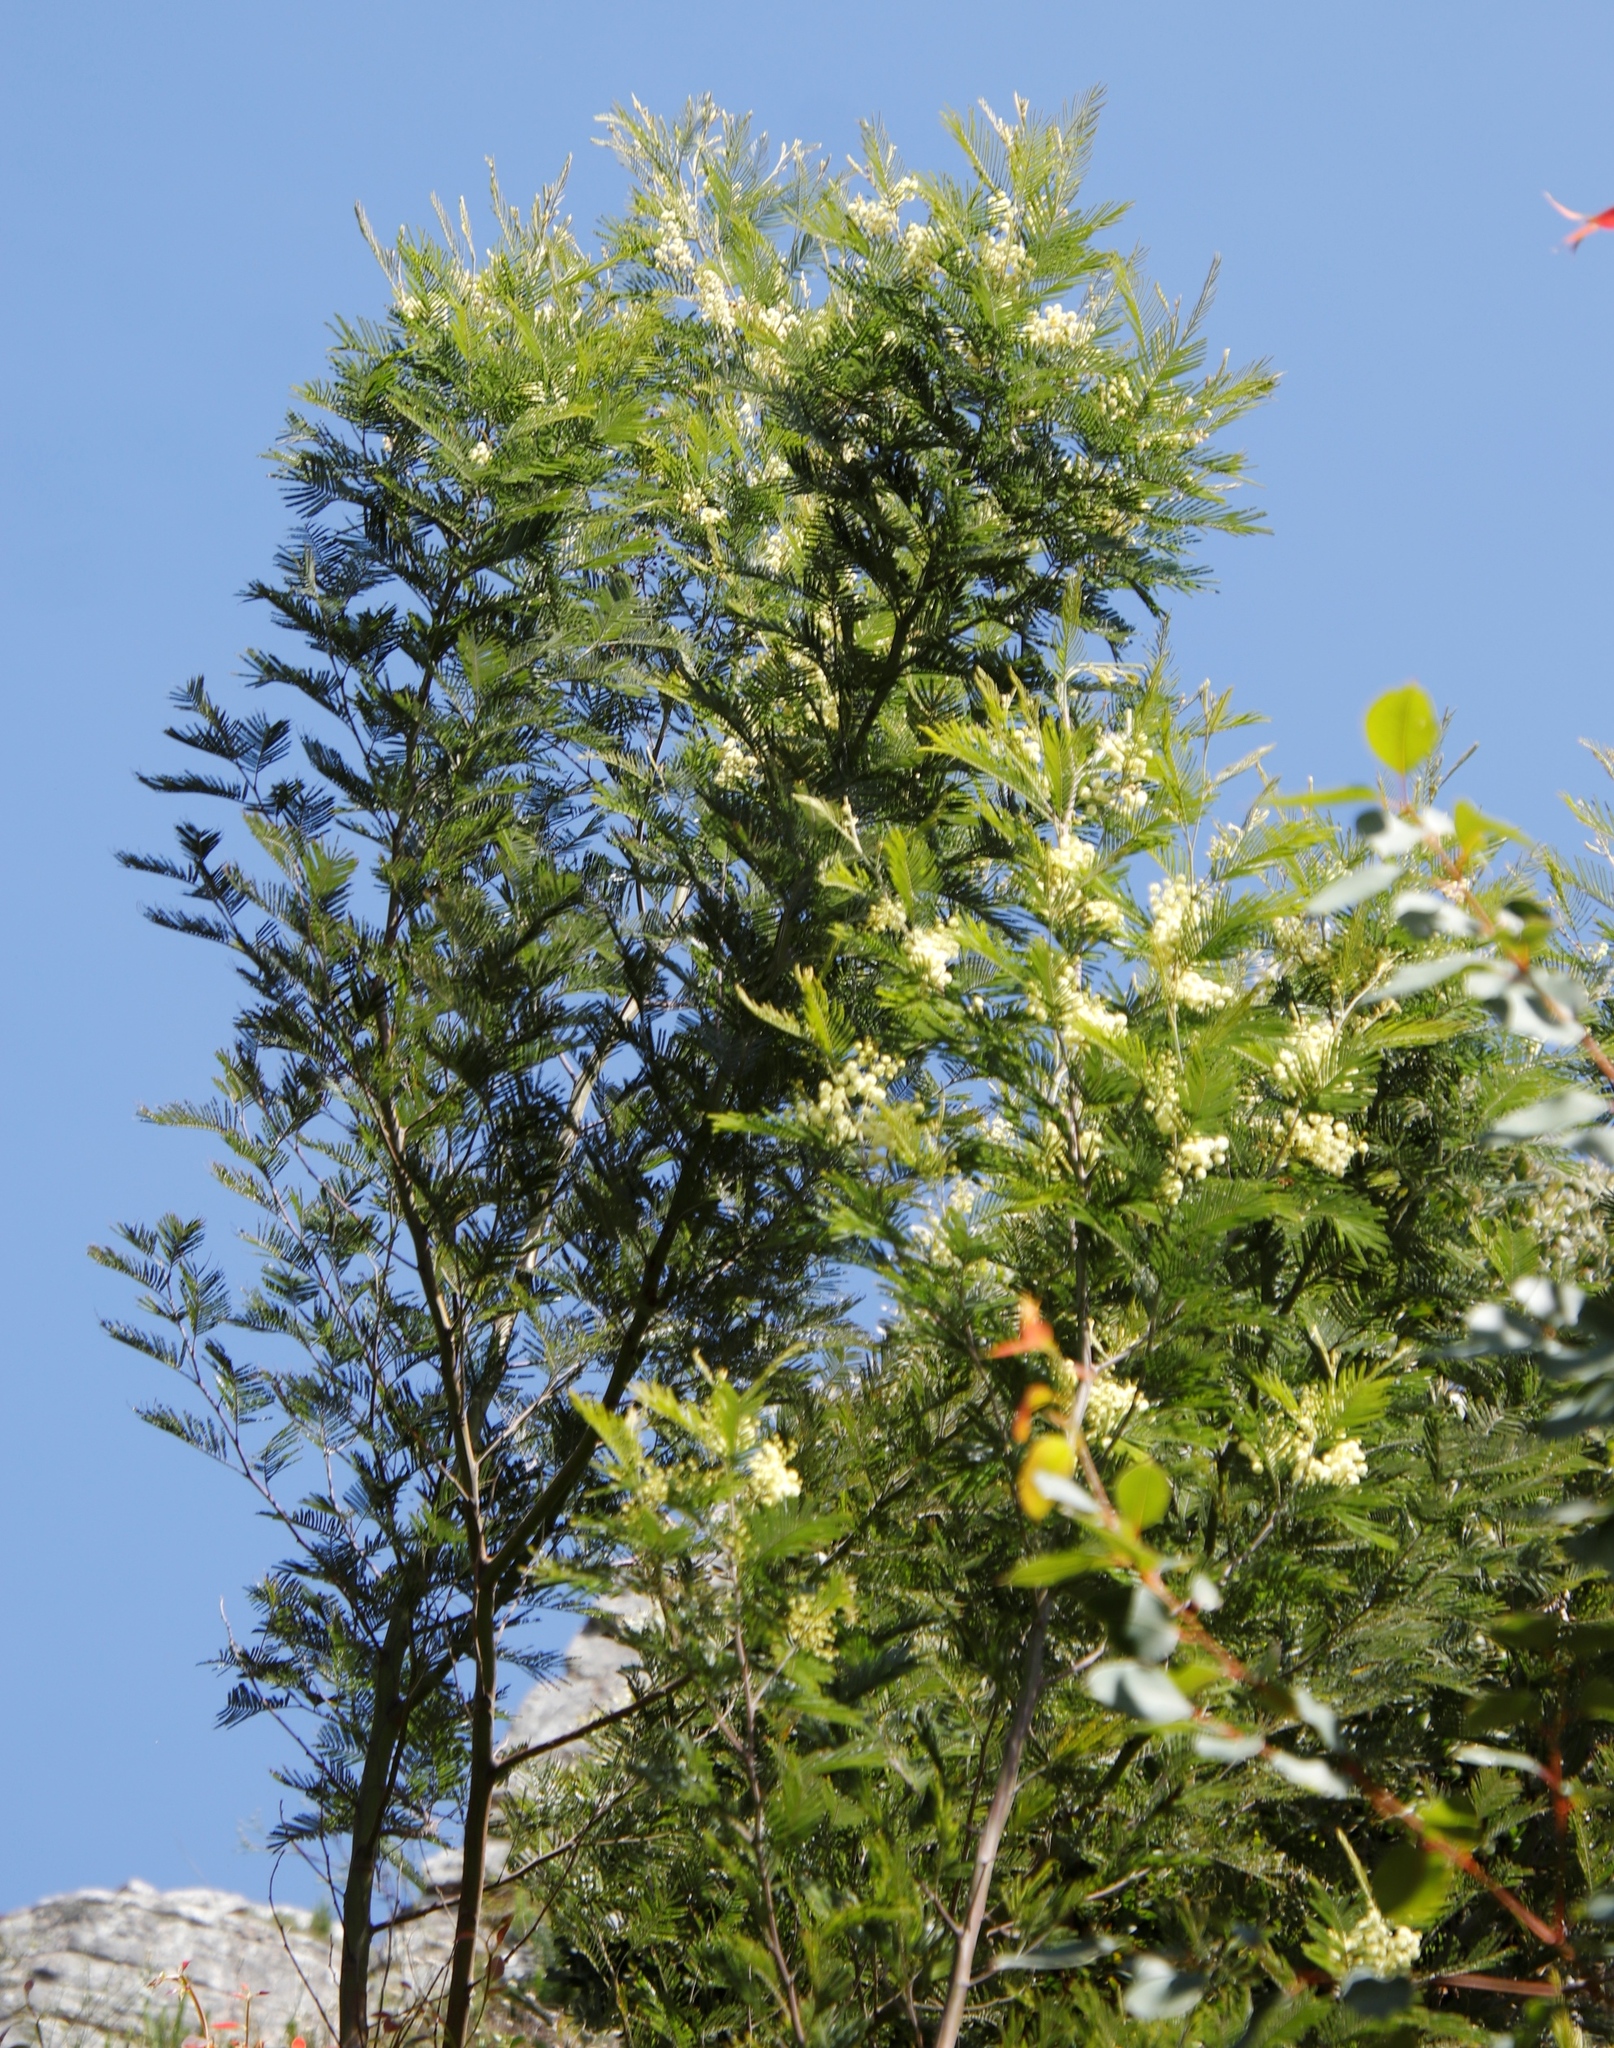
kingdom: Plantae
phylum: Tracheophyta
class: Magnoliopsida
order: Fabales
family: Fabaceae
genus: Acacia
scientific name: Acacia mearnsii
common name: Black wattle
